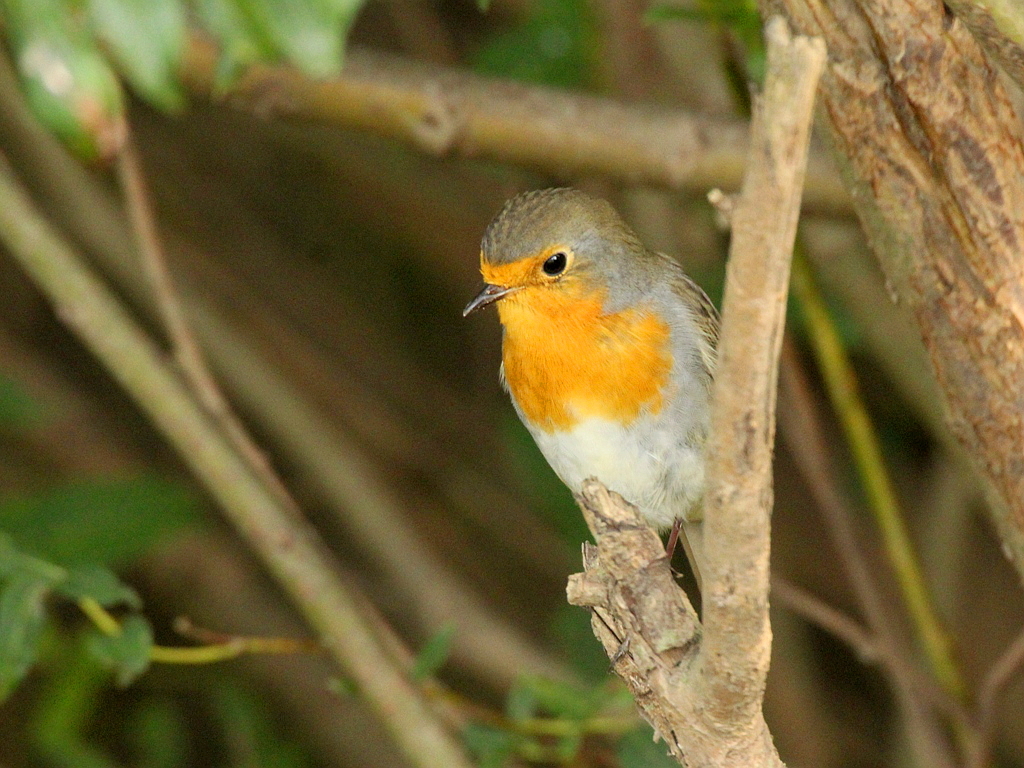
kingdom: Animalia
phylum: Chordata
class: Aves
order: Passeriformes
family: Muscicapidae
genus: Erithacus
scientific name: Erithacus rubecula
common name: European robin
